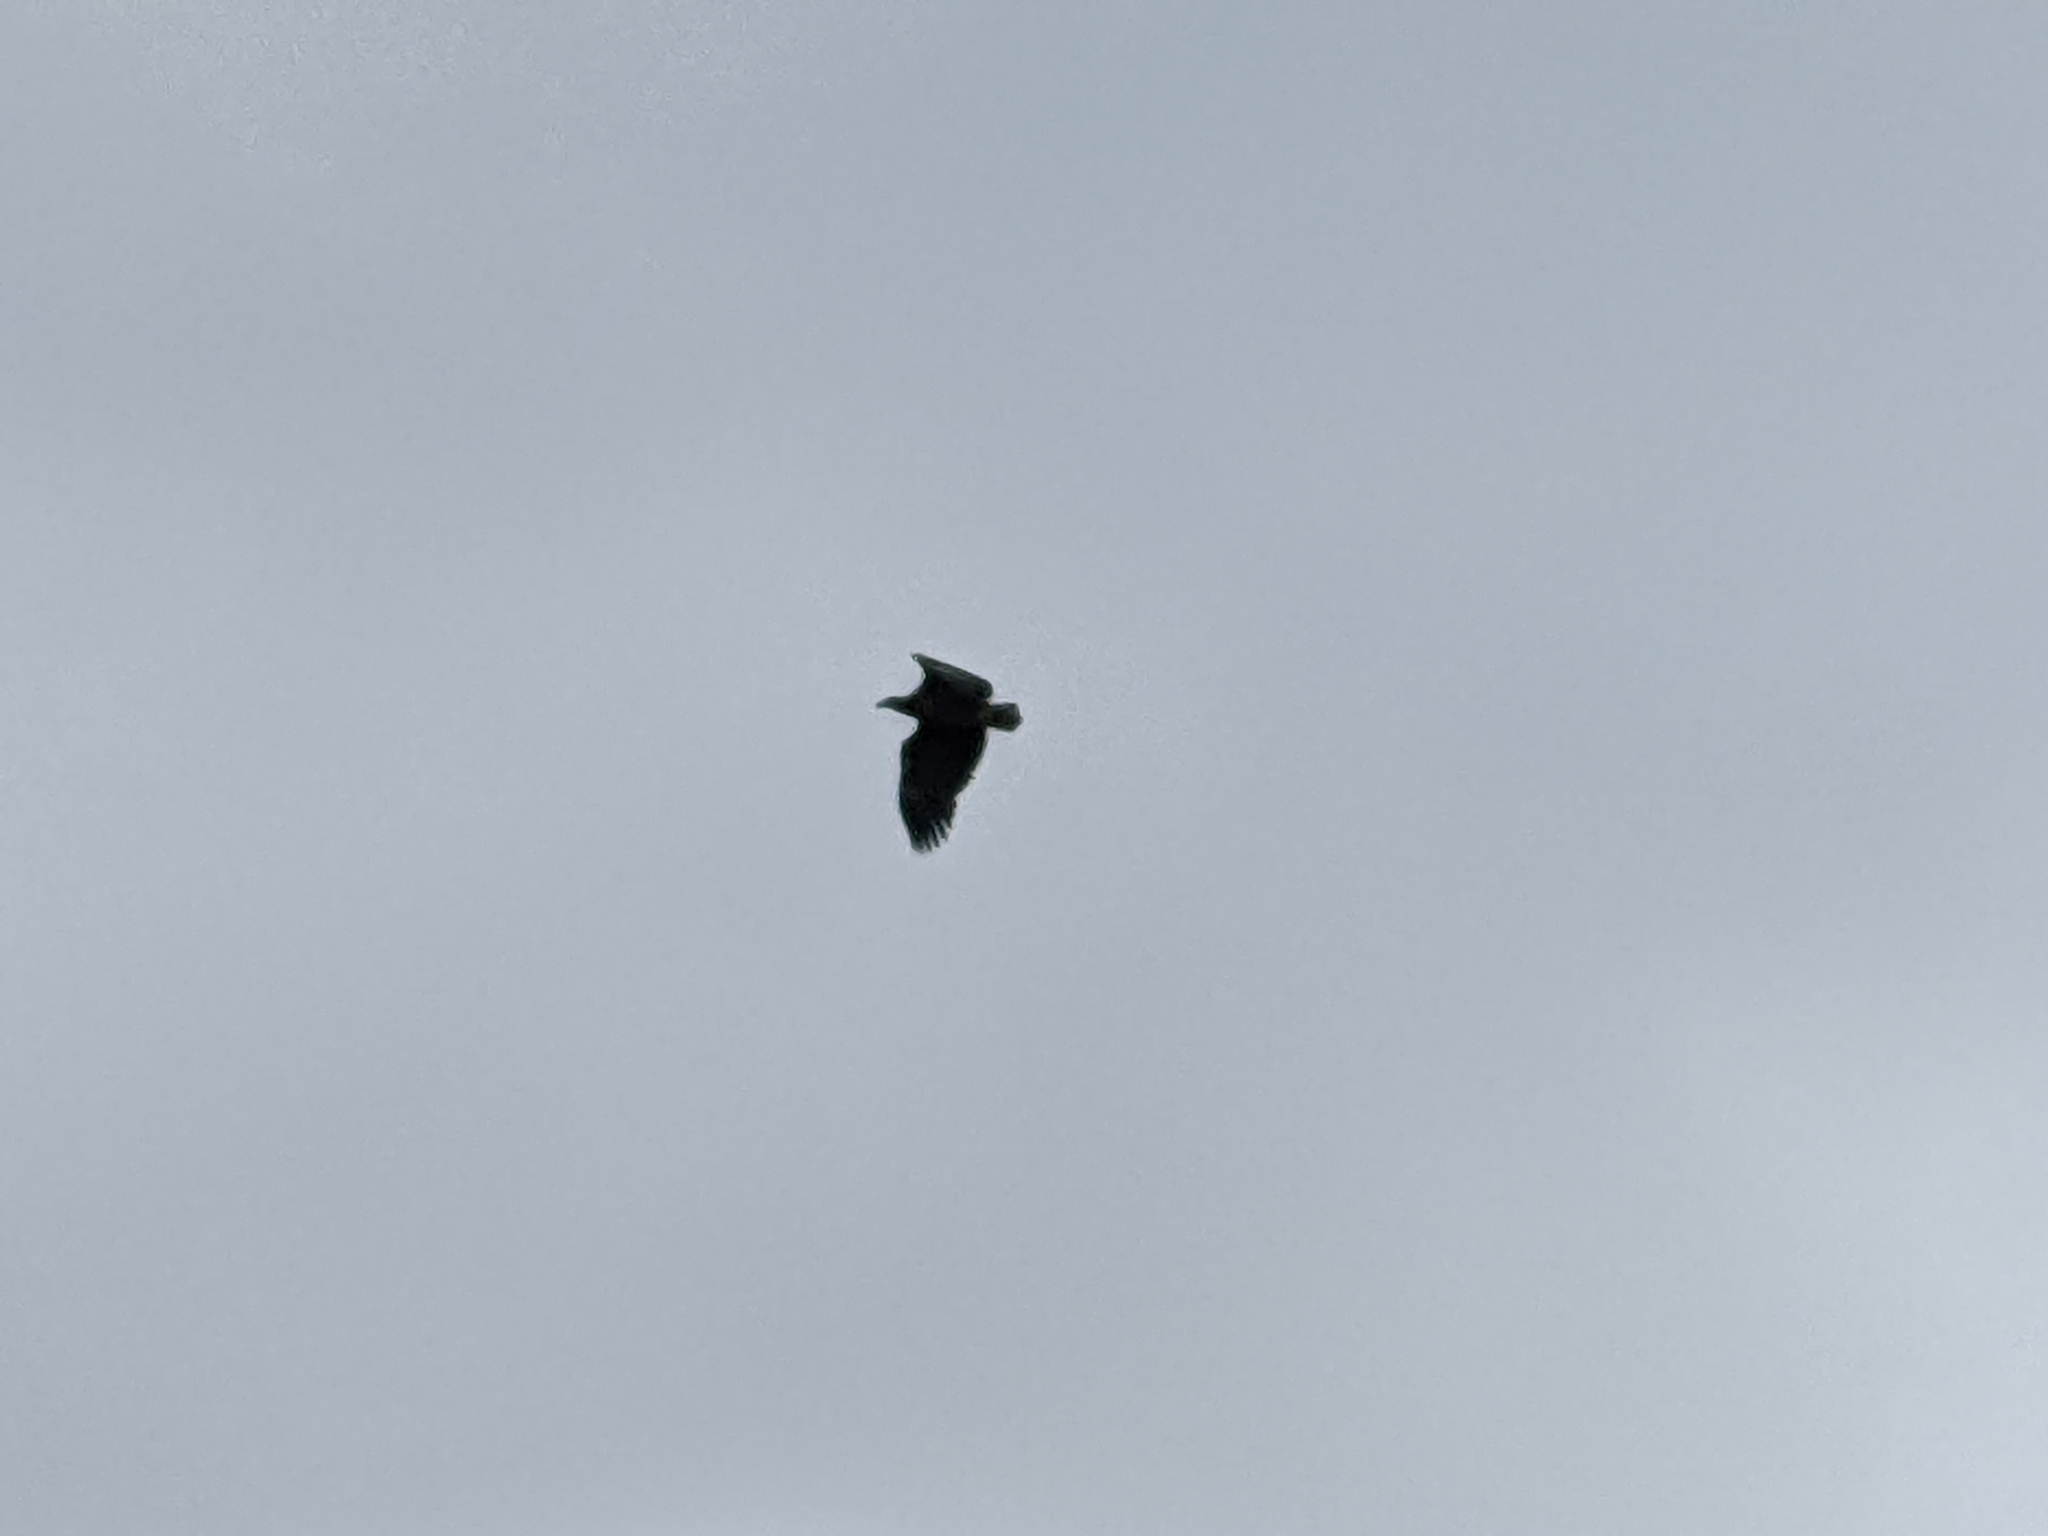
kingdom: Animalia
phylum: Chordata
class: Aves
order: Accipitriformes
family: Accipitridae
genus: Haliaeetus
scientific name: Haliaeetus albicilla
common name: White-tailed eagle
